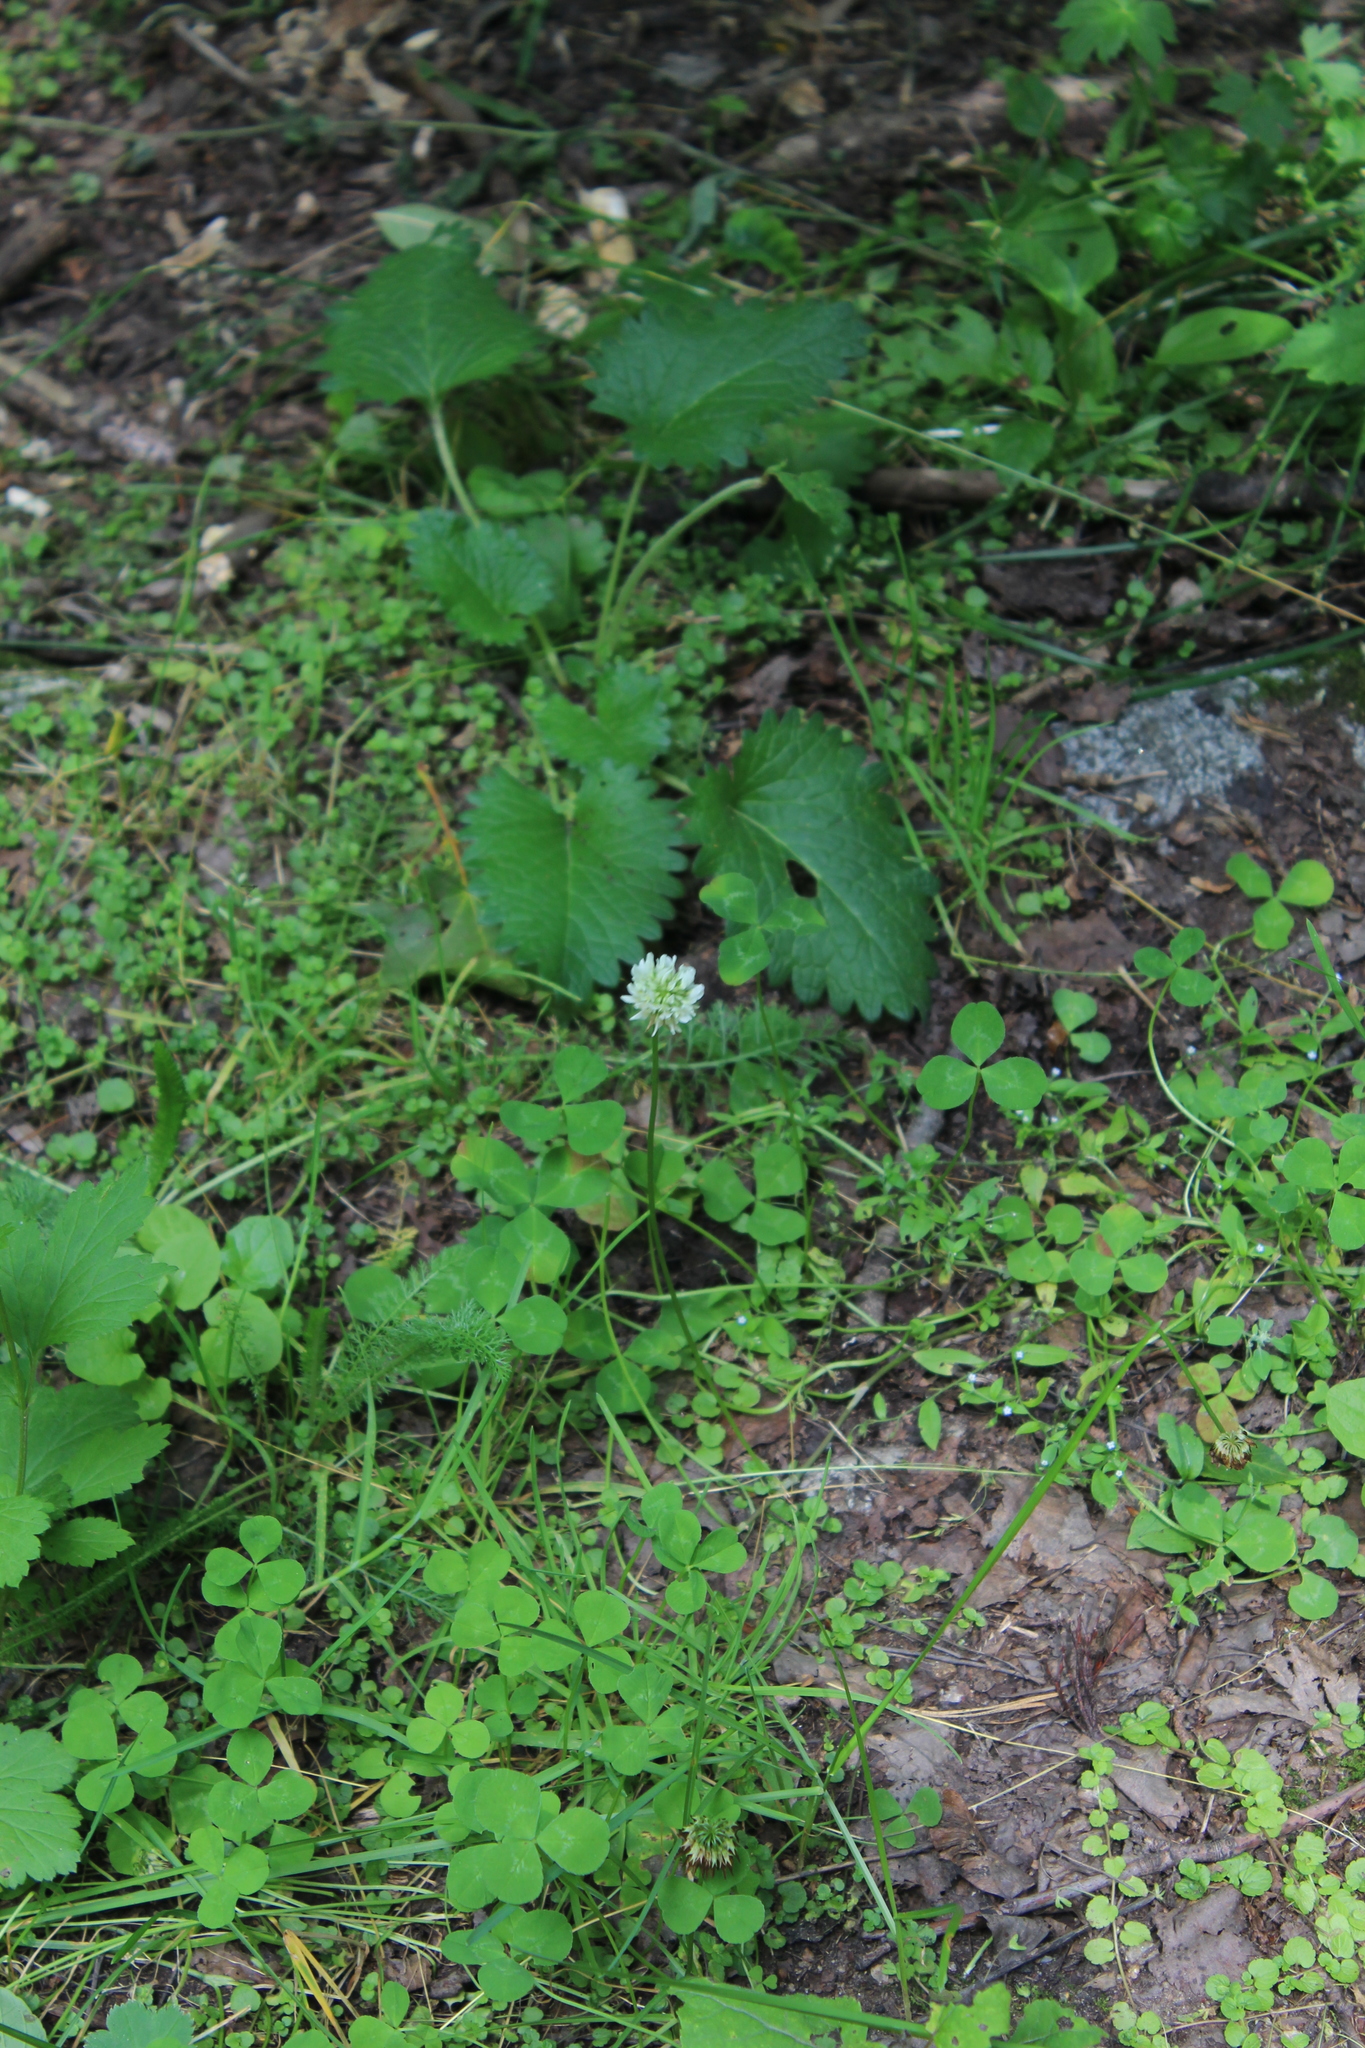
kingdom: Plantae
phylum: Tracheophyta
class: Magnoliopsida
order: Fabales
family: Fabaceae
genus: Trifolium
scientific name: Trifolium repens
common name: White clover
